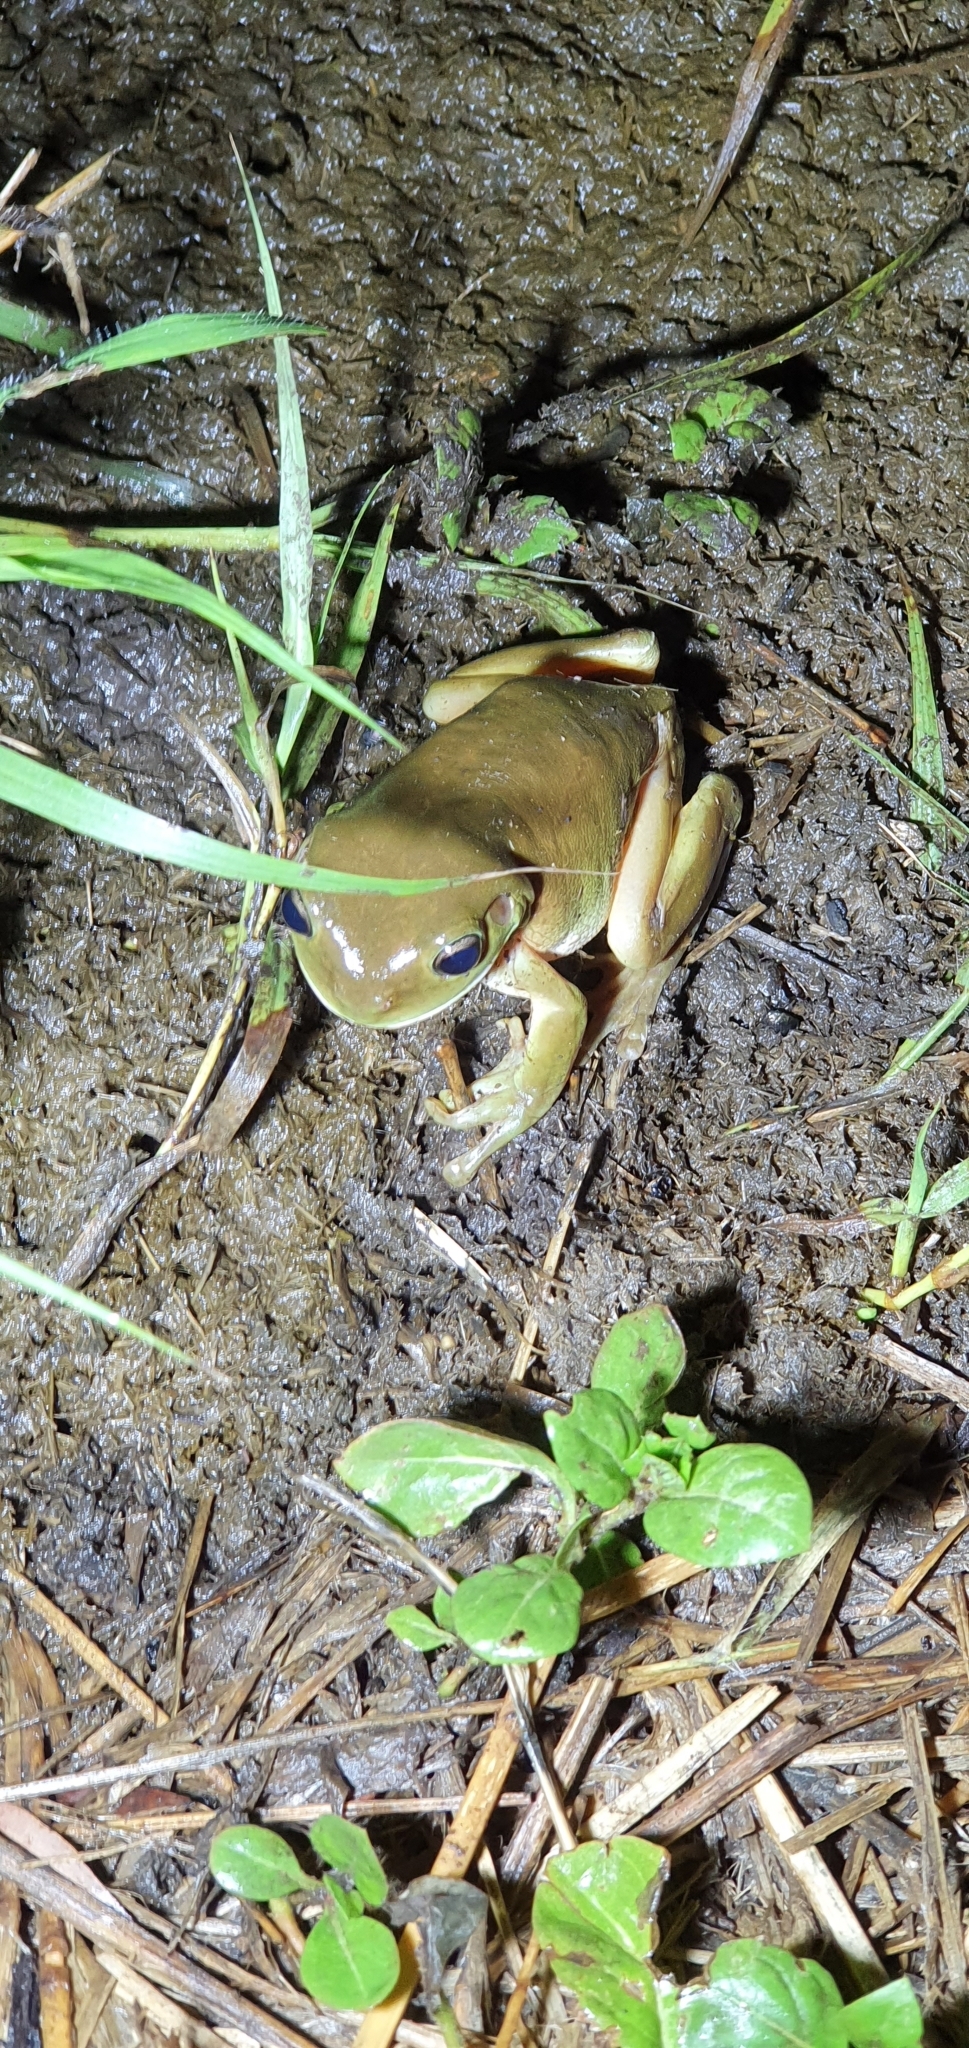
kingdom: Animalia
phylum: Chordata
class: Amphibia
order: Anura
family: Pelodryadidae
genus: Ranoidea
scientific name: Ranoidea caerulea
